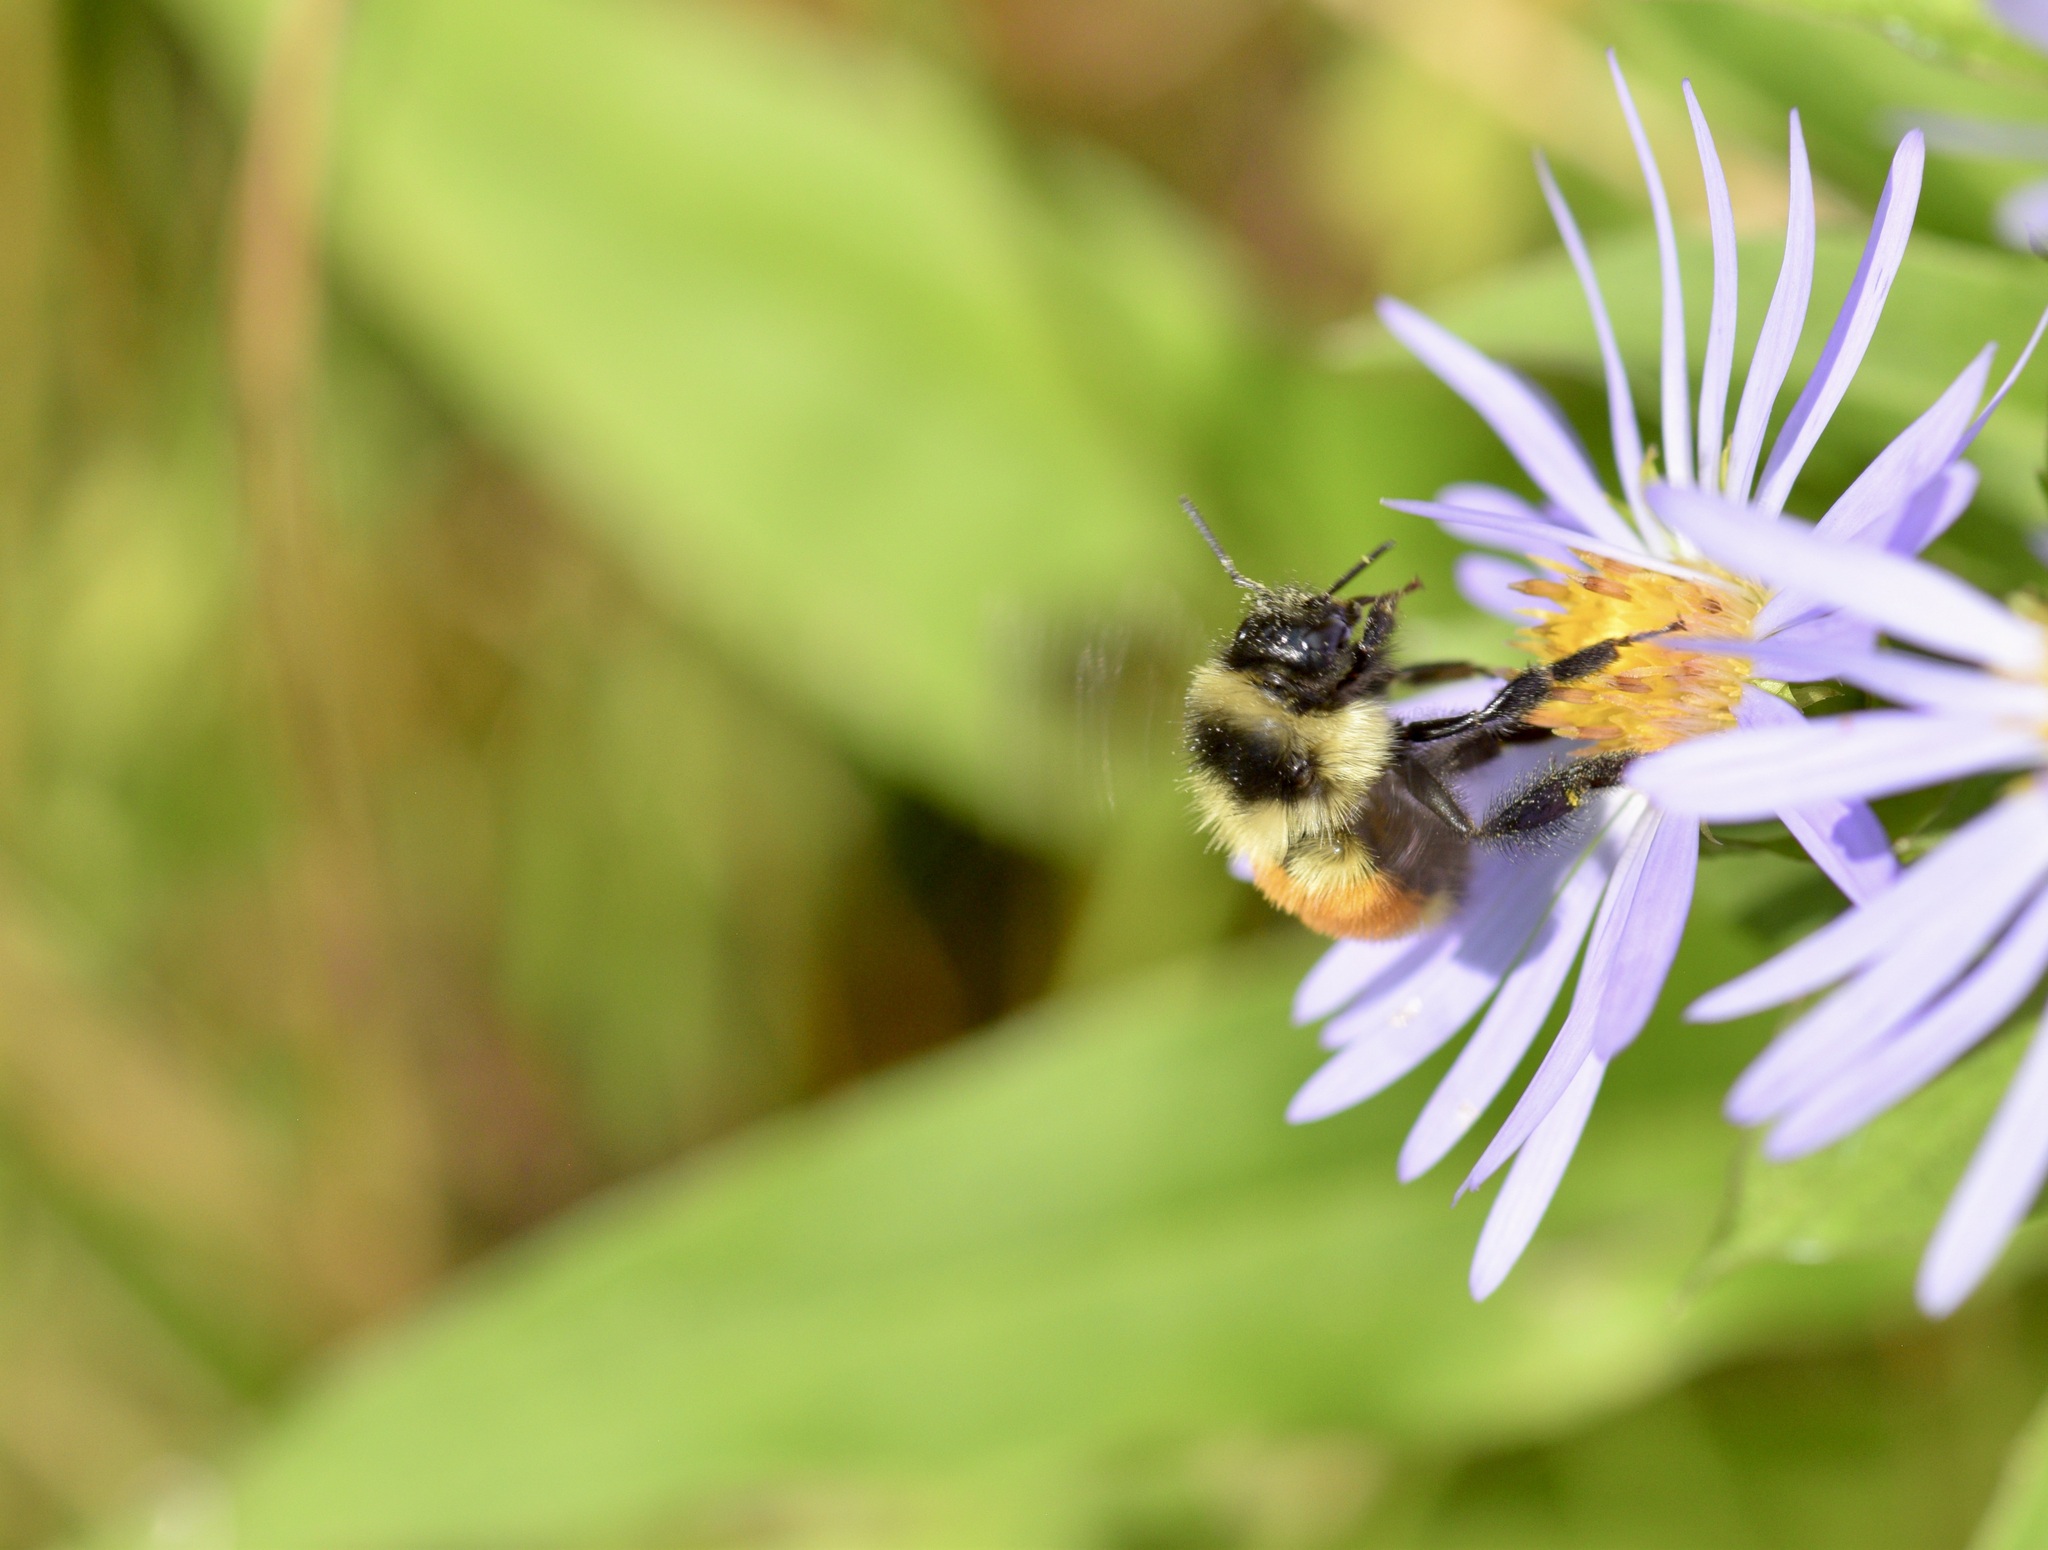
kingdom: Animalia
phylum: Arthropoda
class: Insecta
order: Hymenoptera
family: Apidae
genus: Bombus
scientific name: Bombus ternarius
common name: Tri-colored bumble bee
